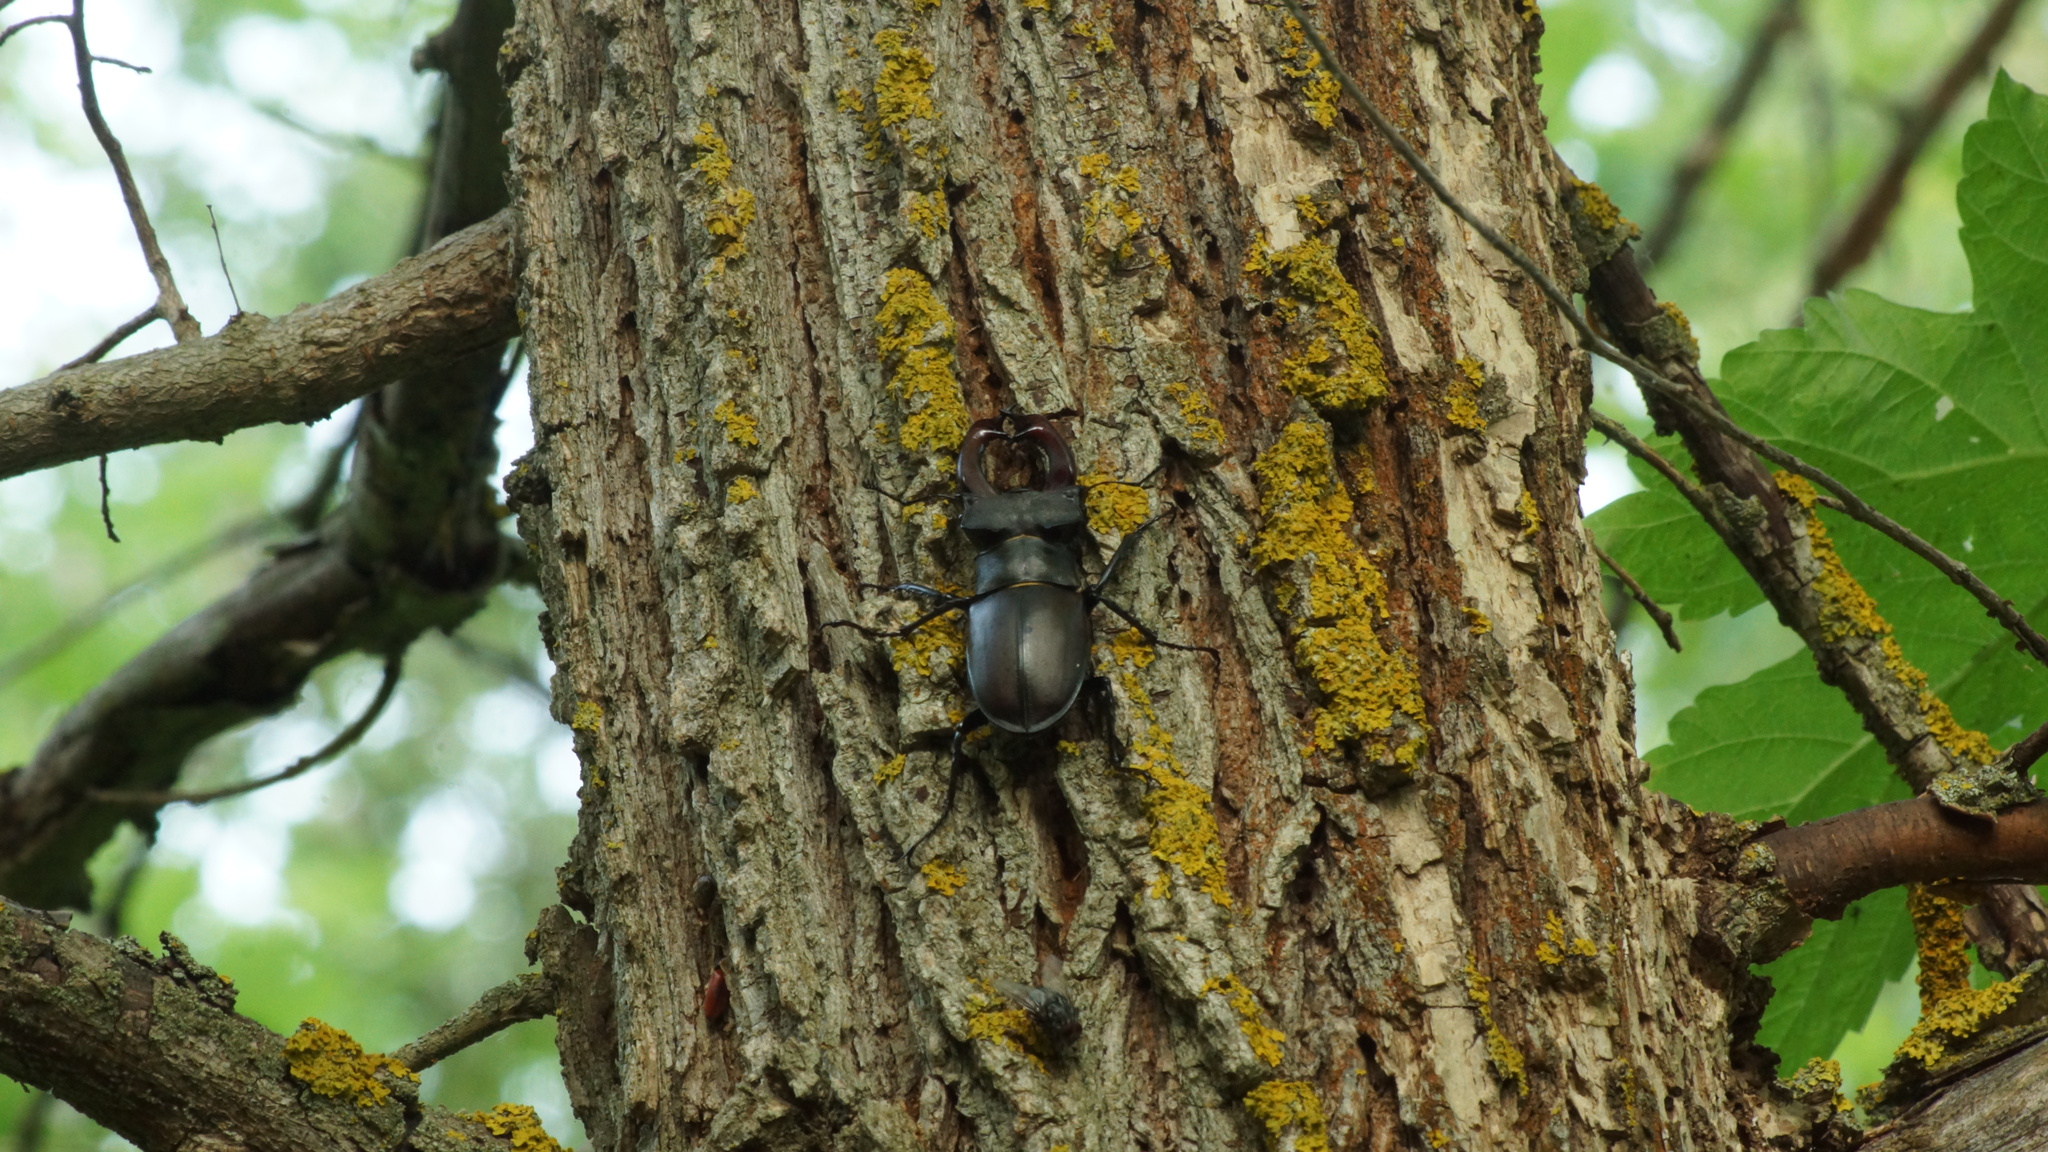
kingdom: Animalia
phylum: Arthropoda
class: Insecta
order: Coleoptera
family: Lucanidae
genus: Lucanus
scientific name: Lucanus cervus
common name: Stag beetle
